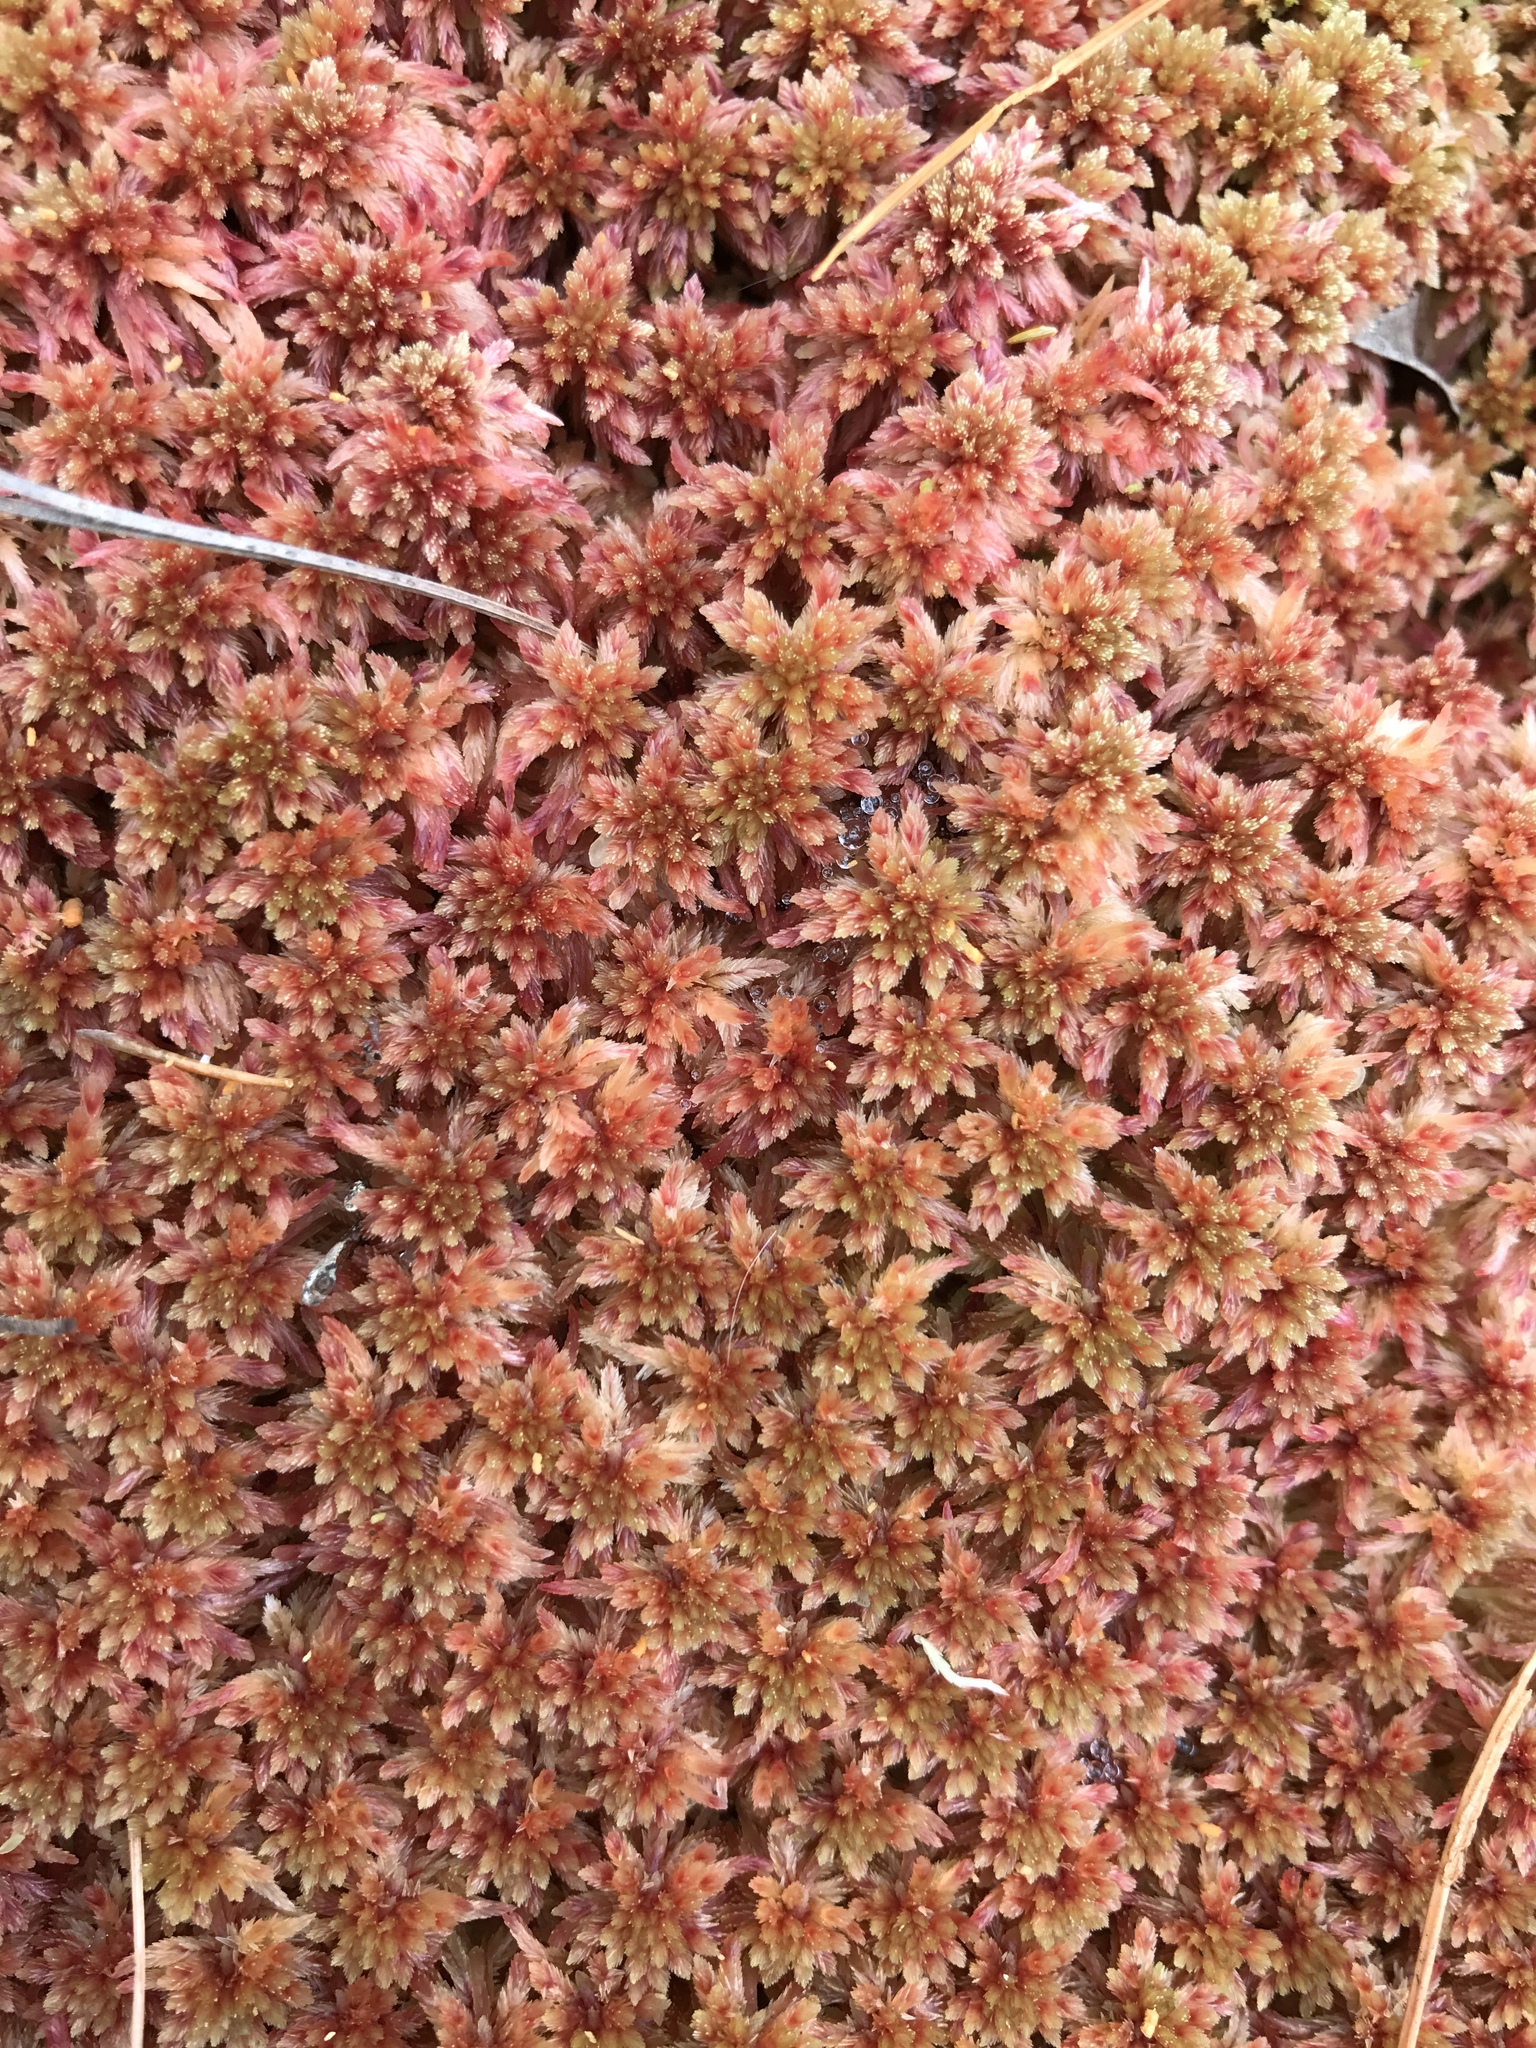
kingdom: Plantae
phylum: Bryophyta
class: Sphagnopsida
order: Sphagnales
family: Sphagnaceae
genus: Sphagnum
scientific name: Sphagnum bartlettianum
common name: Bartlett's peatmoss
